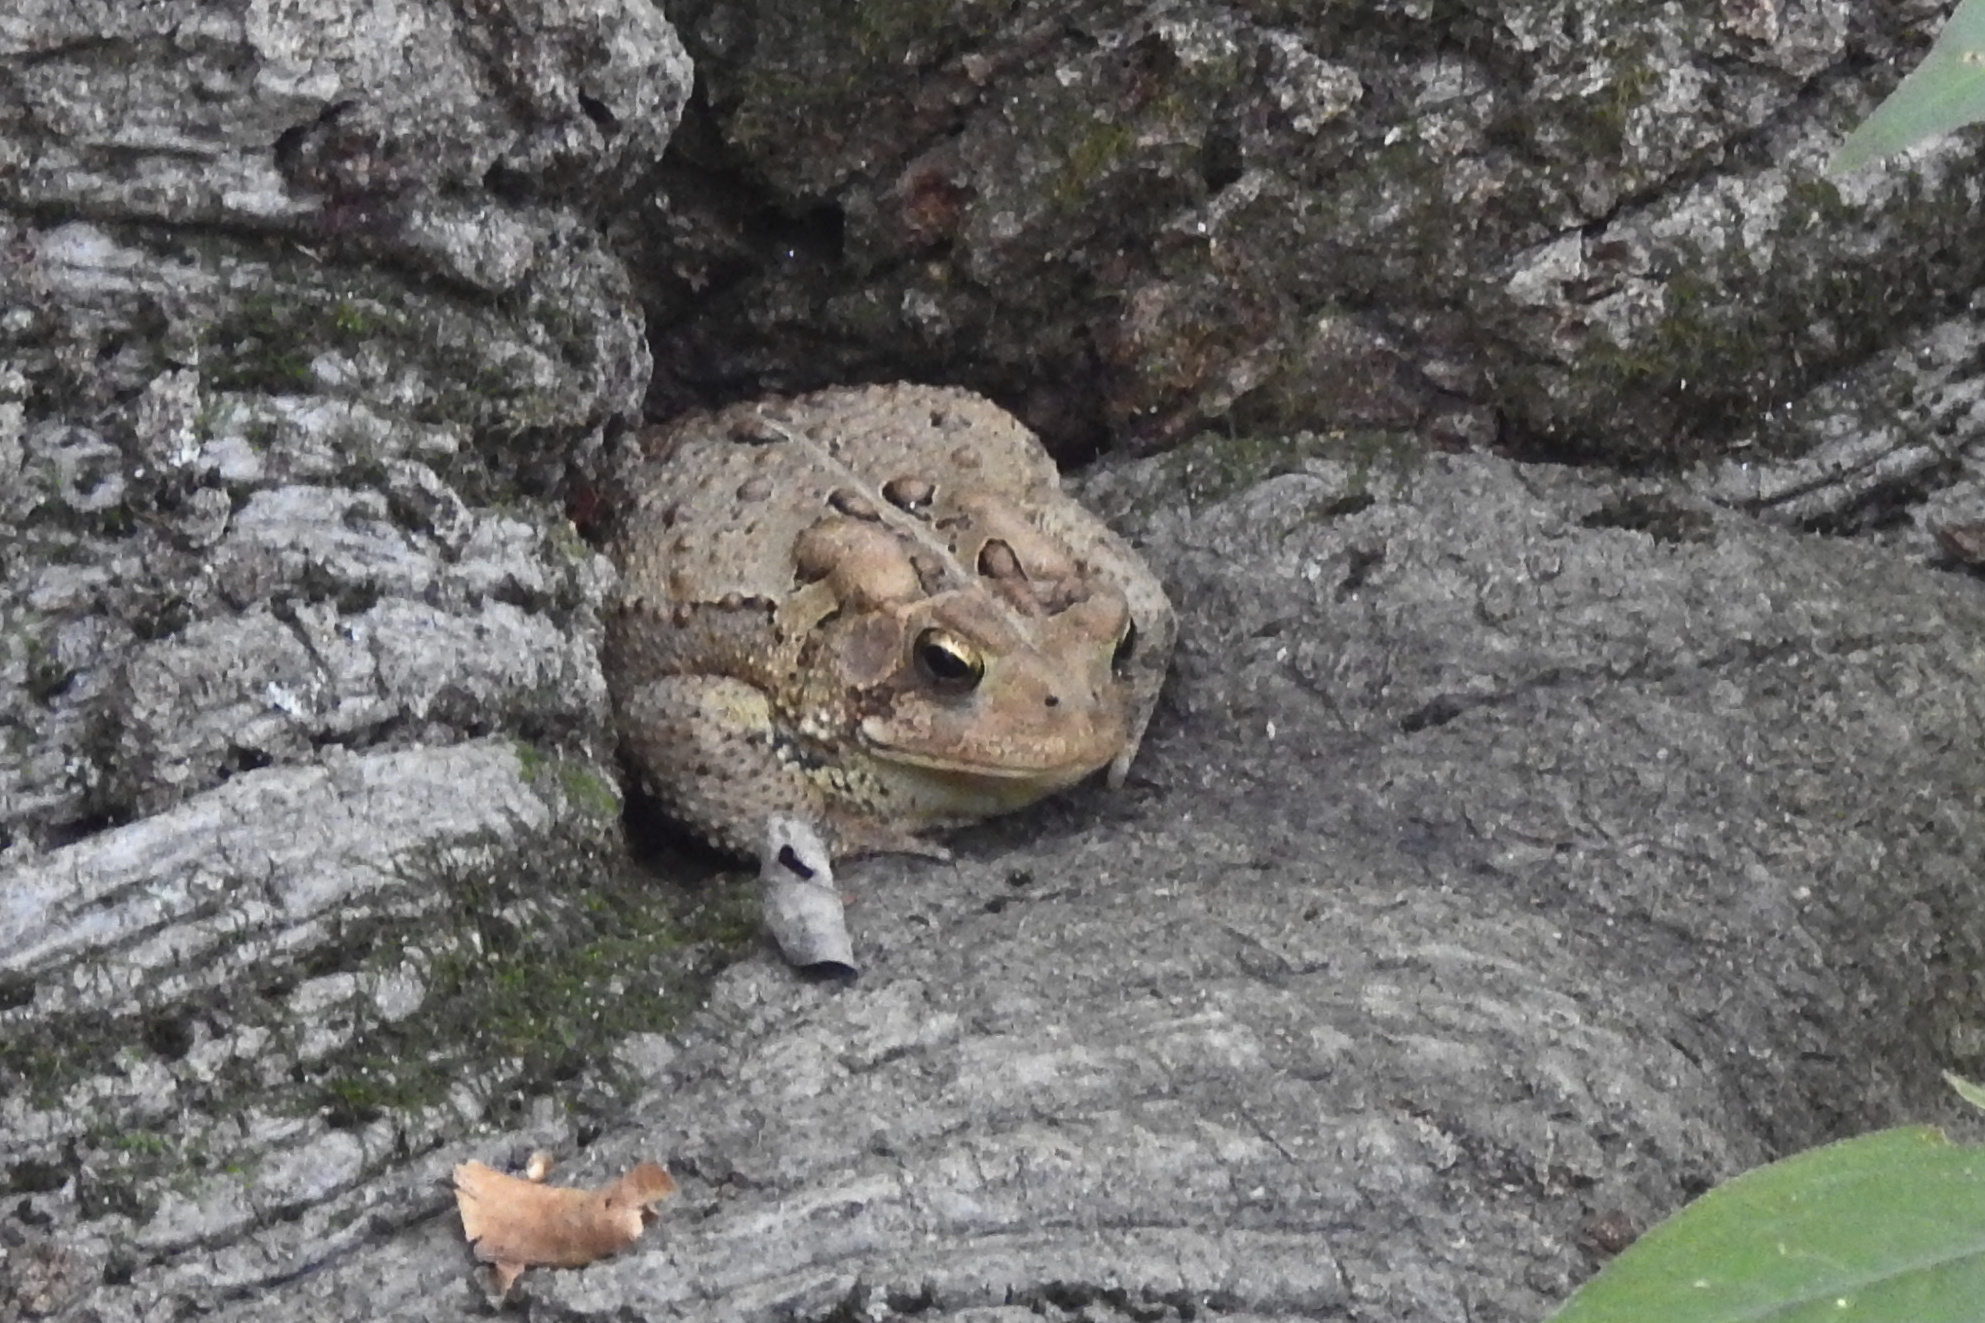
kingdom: Animalia
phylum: Chordata
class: Amphibia
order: Anura
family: Bufonidae
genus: Anaxyrus
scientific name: Anaxyrus americanus
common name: American toad
